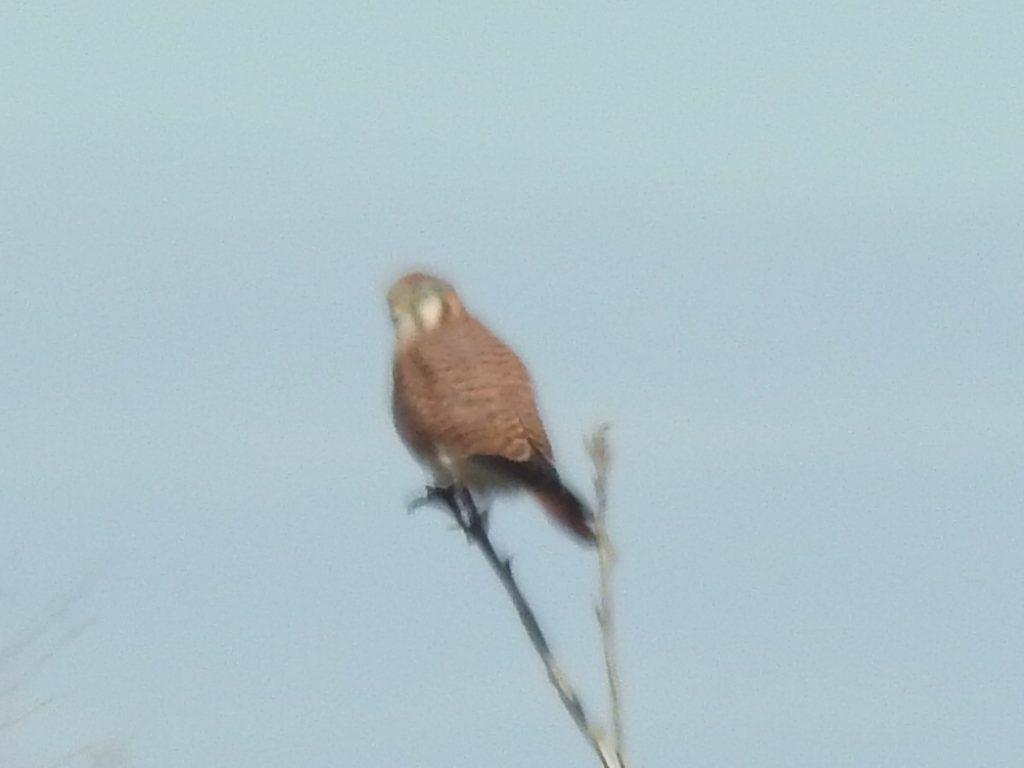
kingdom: Animalia
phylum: Chordata
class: Aves
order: Falconiformes
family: Falconidae
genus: Falco
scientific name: Falco sparverius
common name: American kestrel
